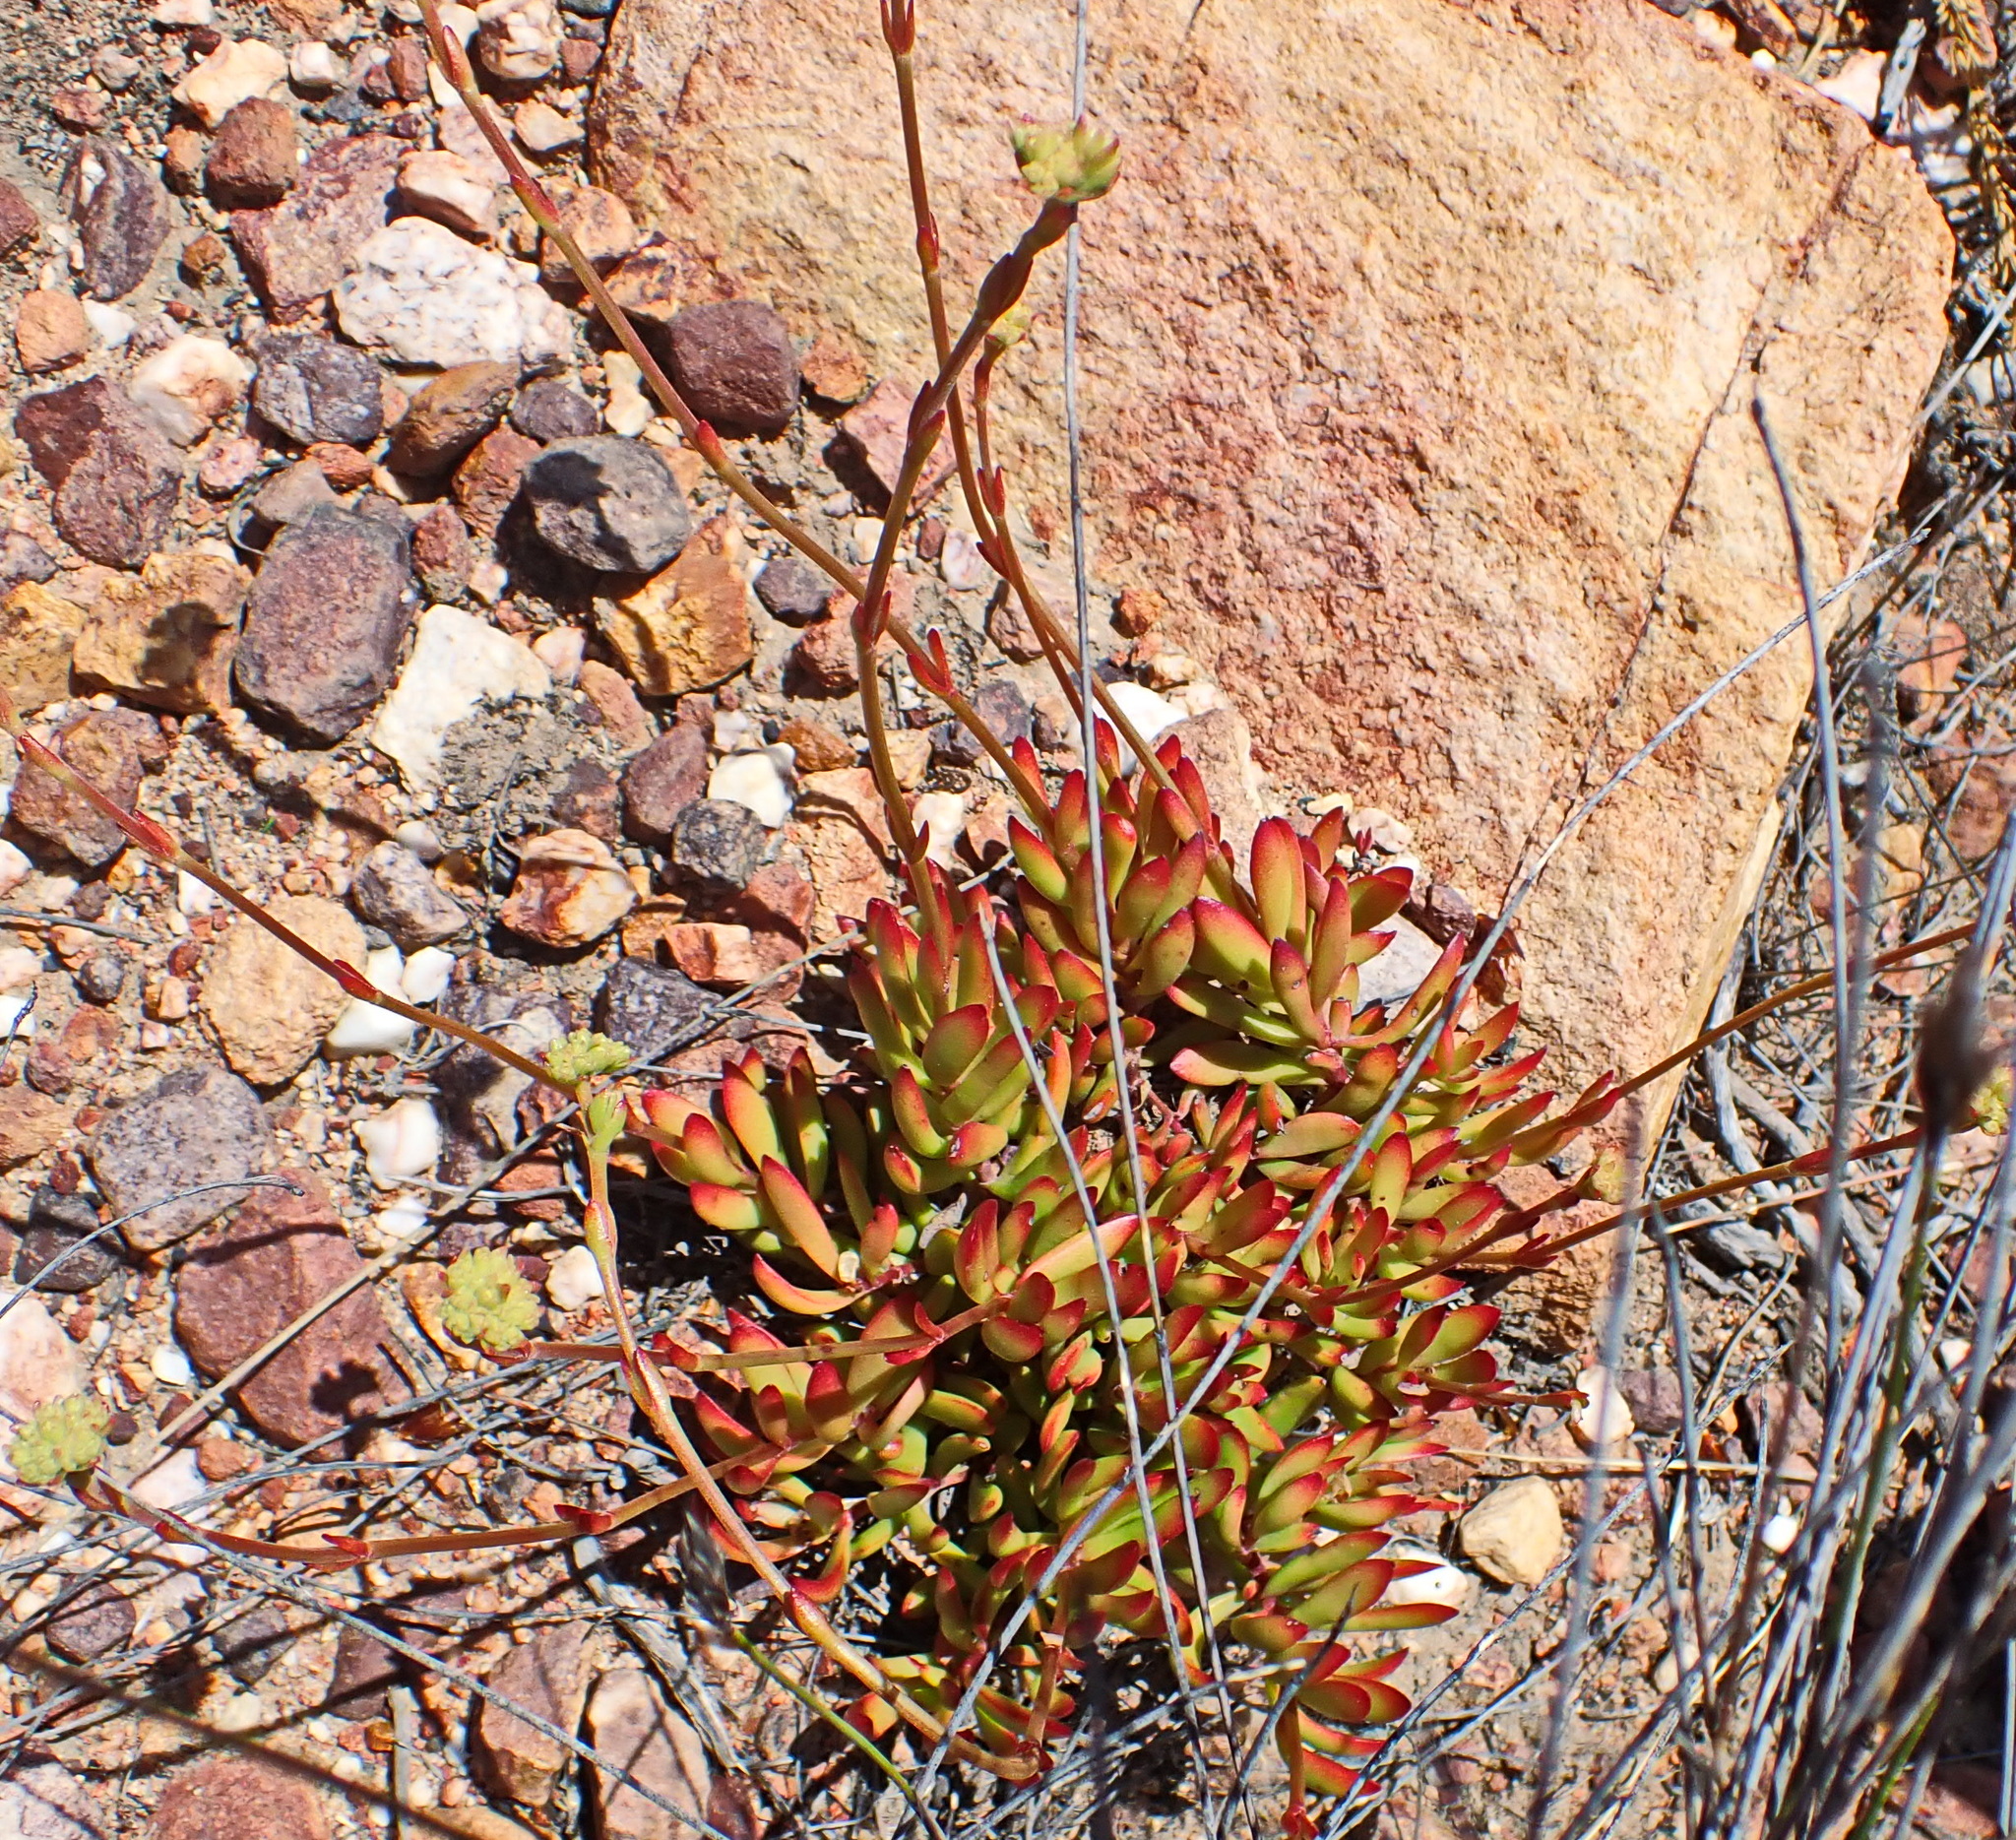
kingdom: Plantae
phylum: Tracheophyta
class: Magnoliopsida
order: Saxifragales
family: Crassulaceae
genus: Crassula
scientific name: Crassula atropurpurea
